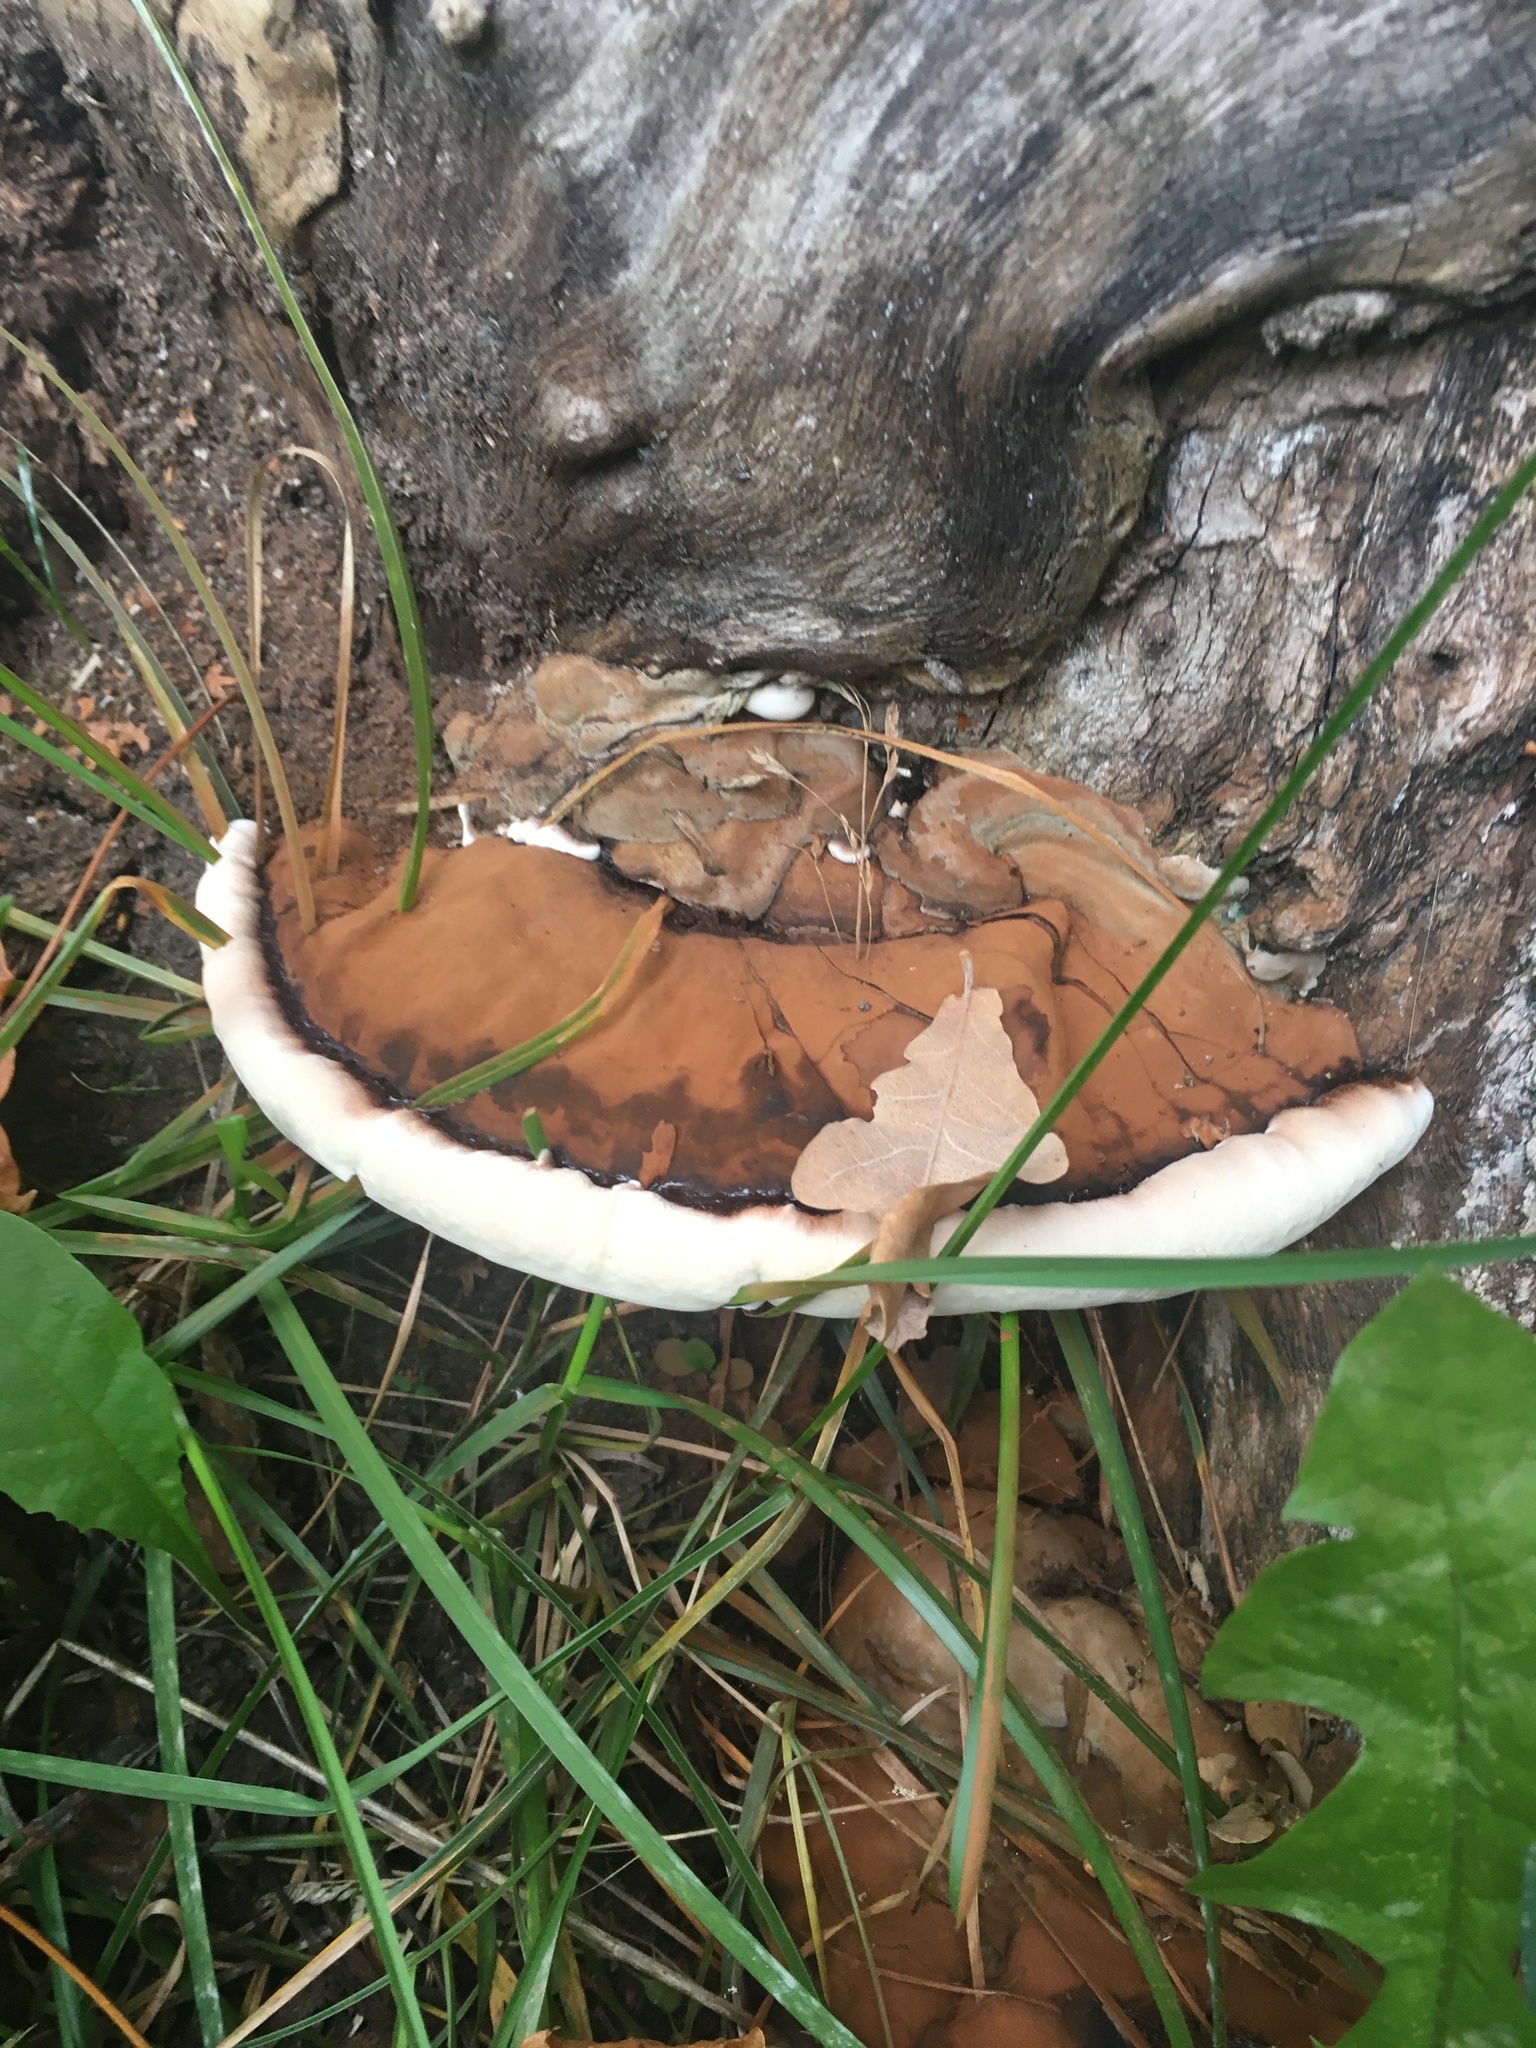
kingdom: Fungi
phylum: Basidiomycota
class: Agaricomycetes
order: Polyporales
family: Polyporaceae
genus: Ganoderma
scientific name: Ganoderma applanatum
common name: Artist's bracket
